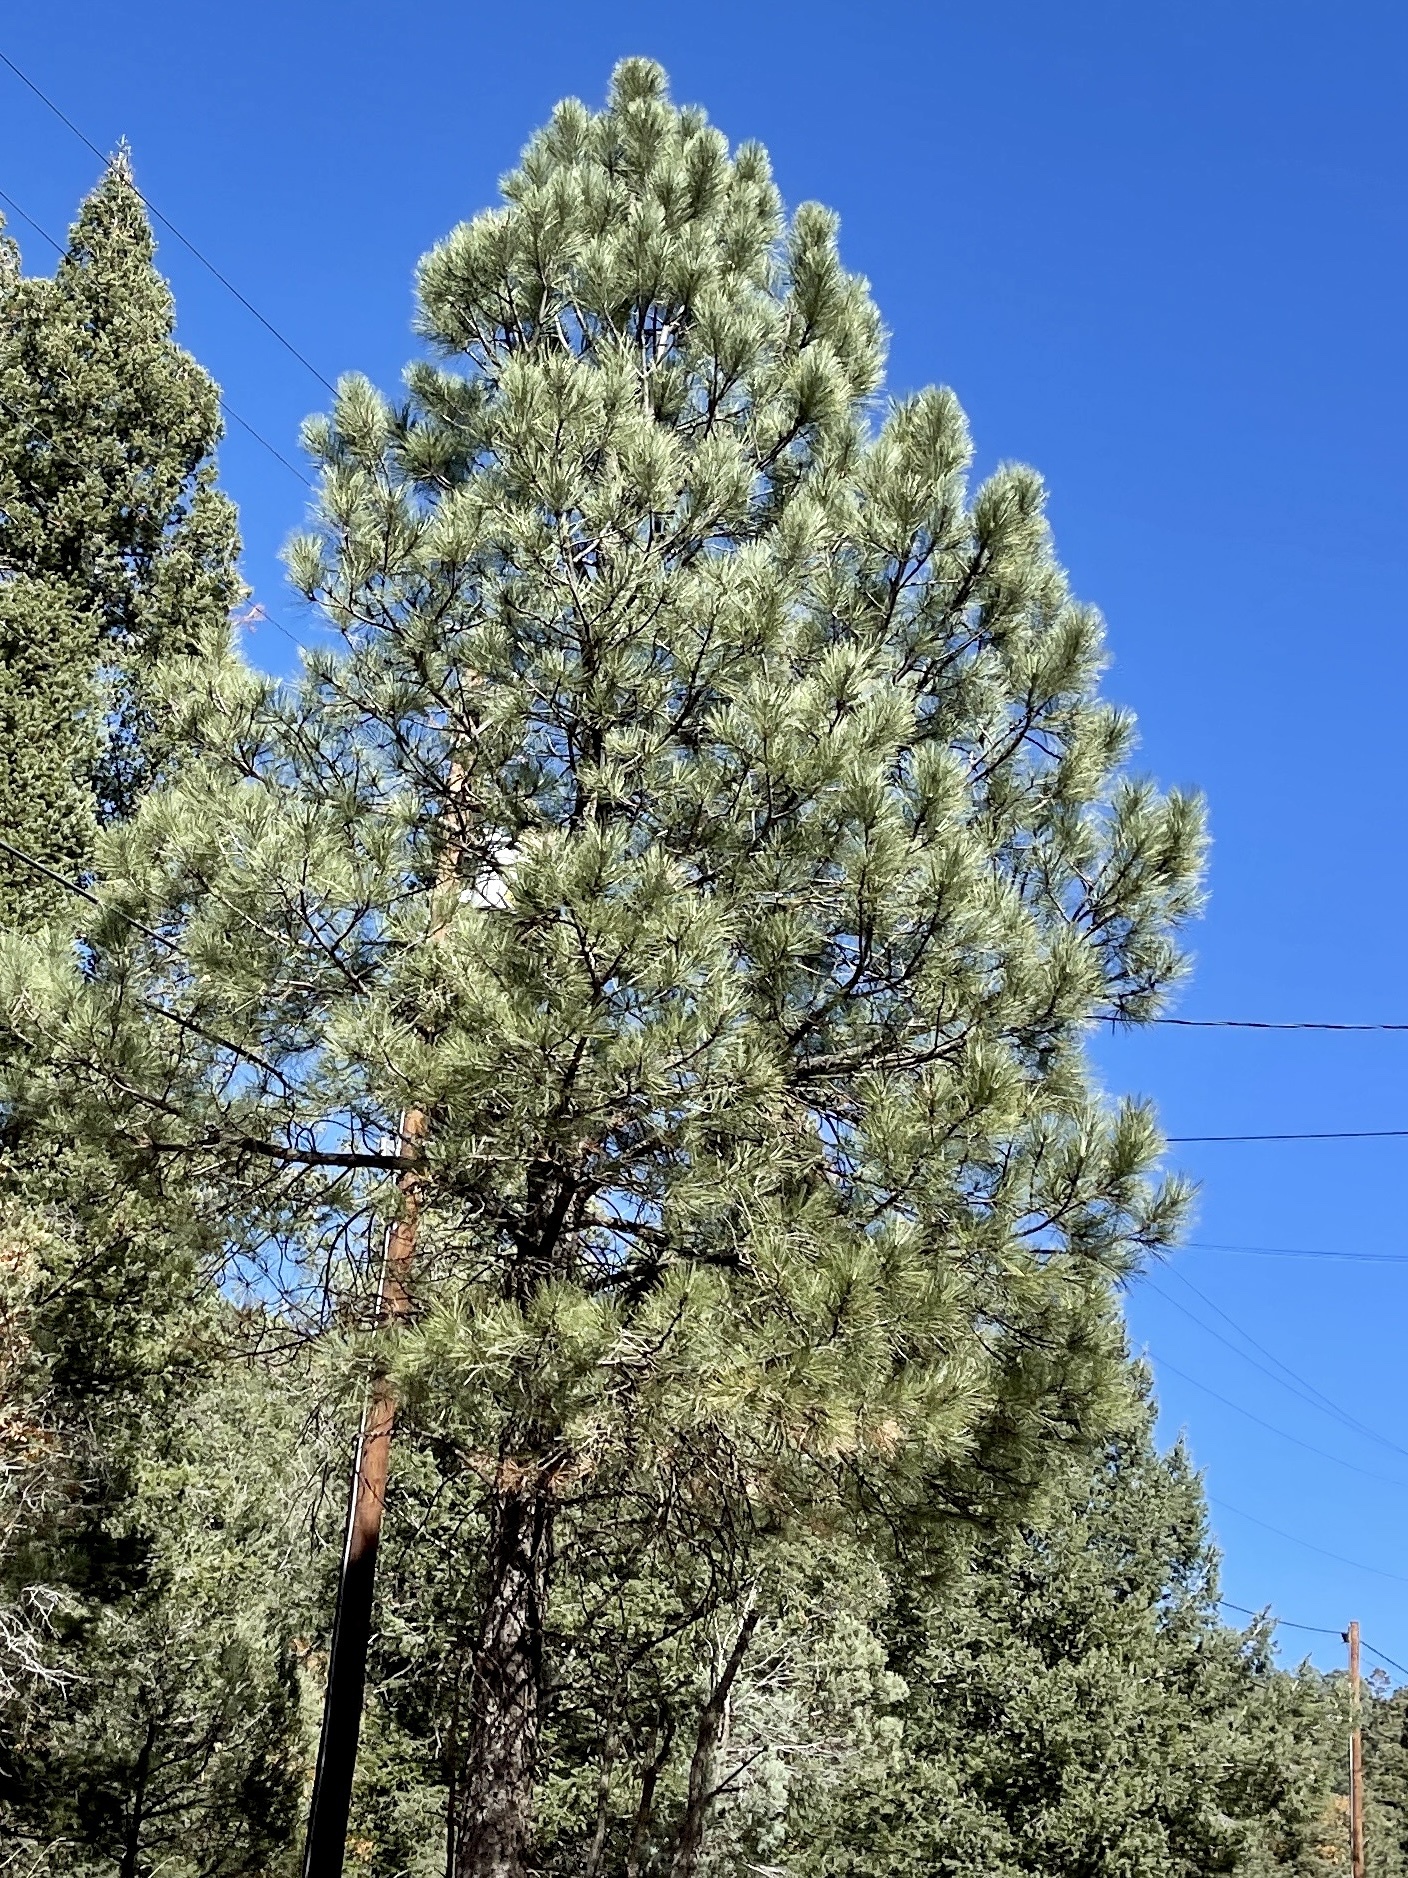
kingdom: Plantae
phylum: Tracheophyta
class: Pinopsida
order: Pinales
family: Pinaceae
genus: Pinus
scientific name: Pinus ponderosa
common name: Western yellow-pine
